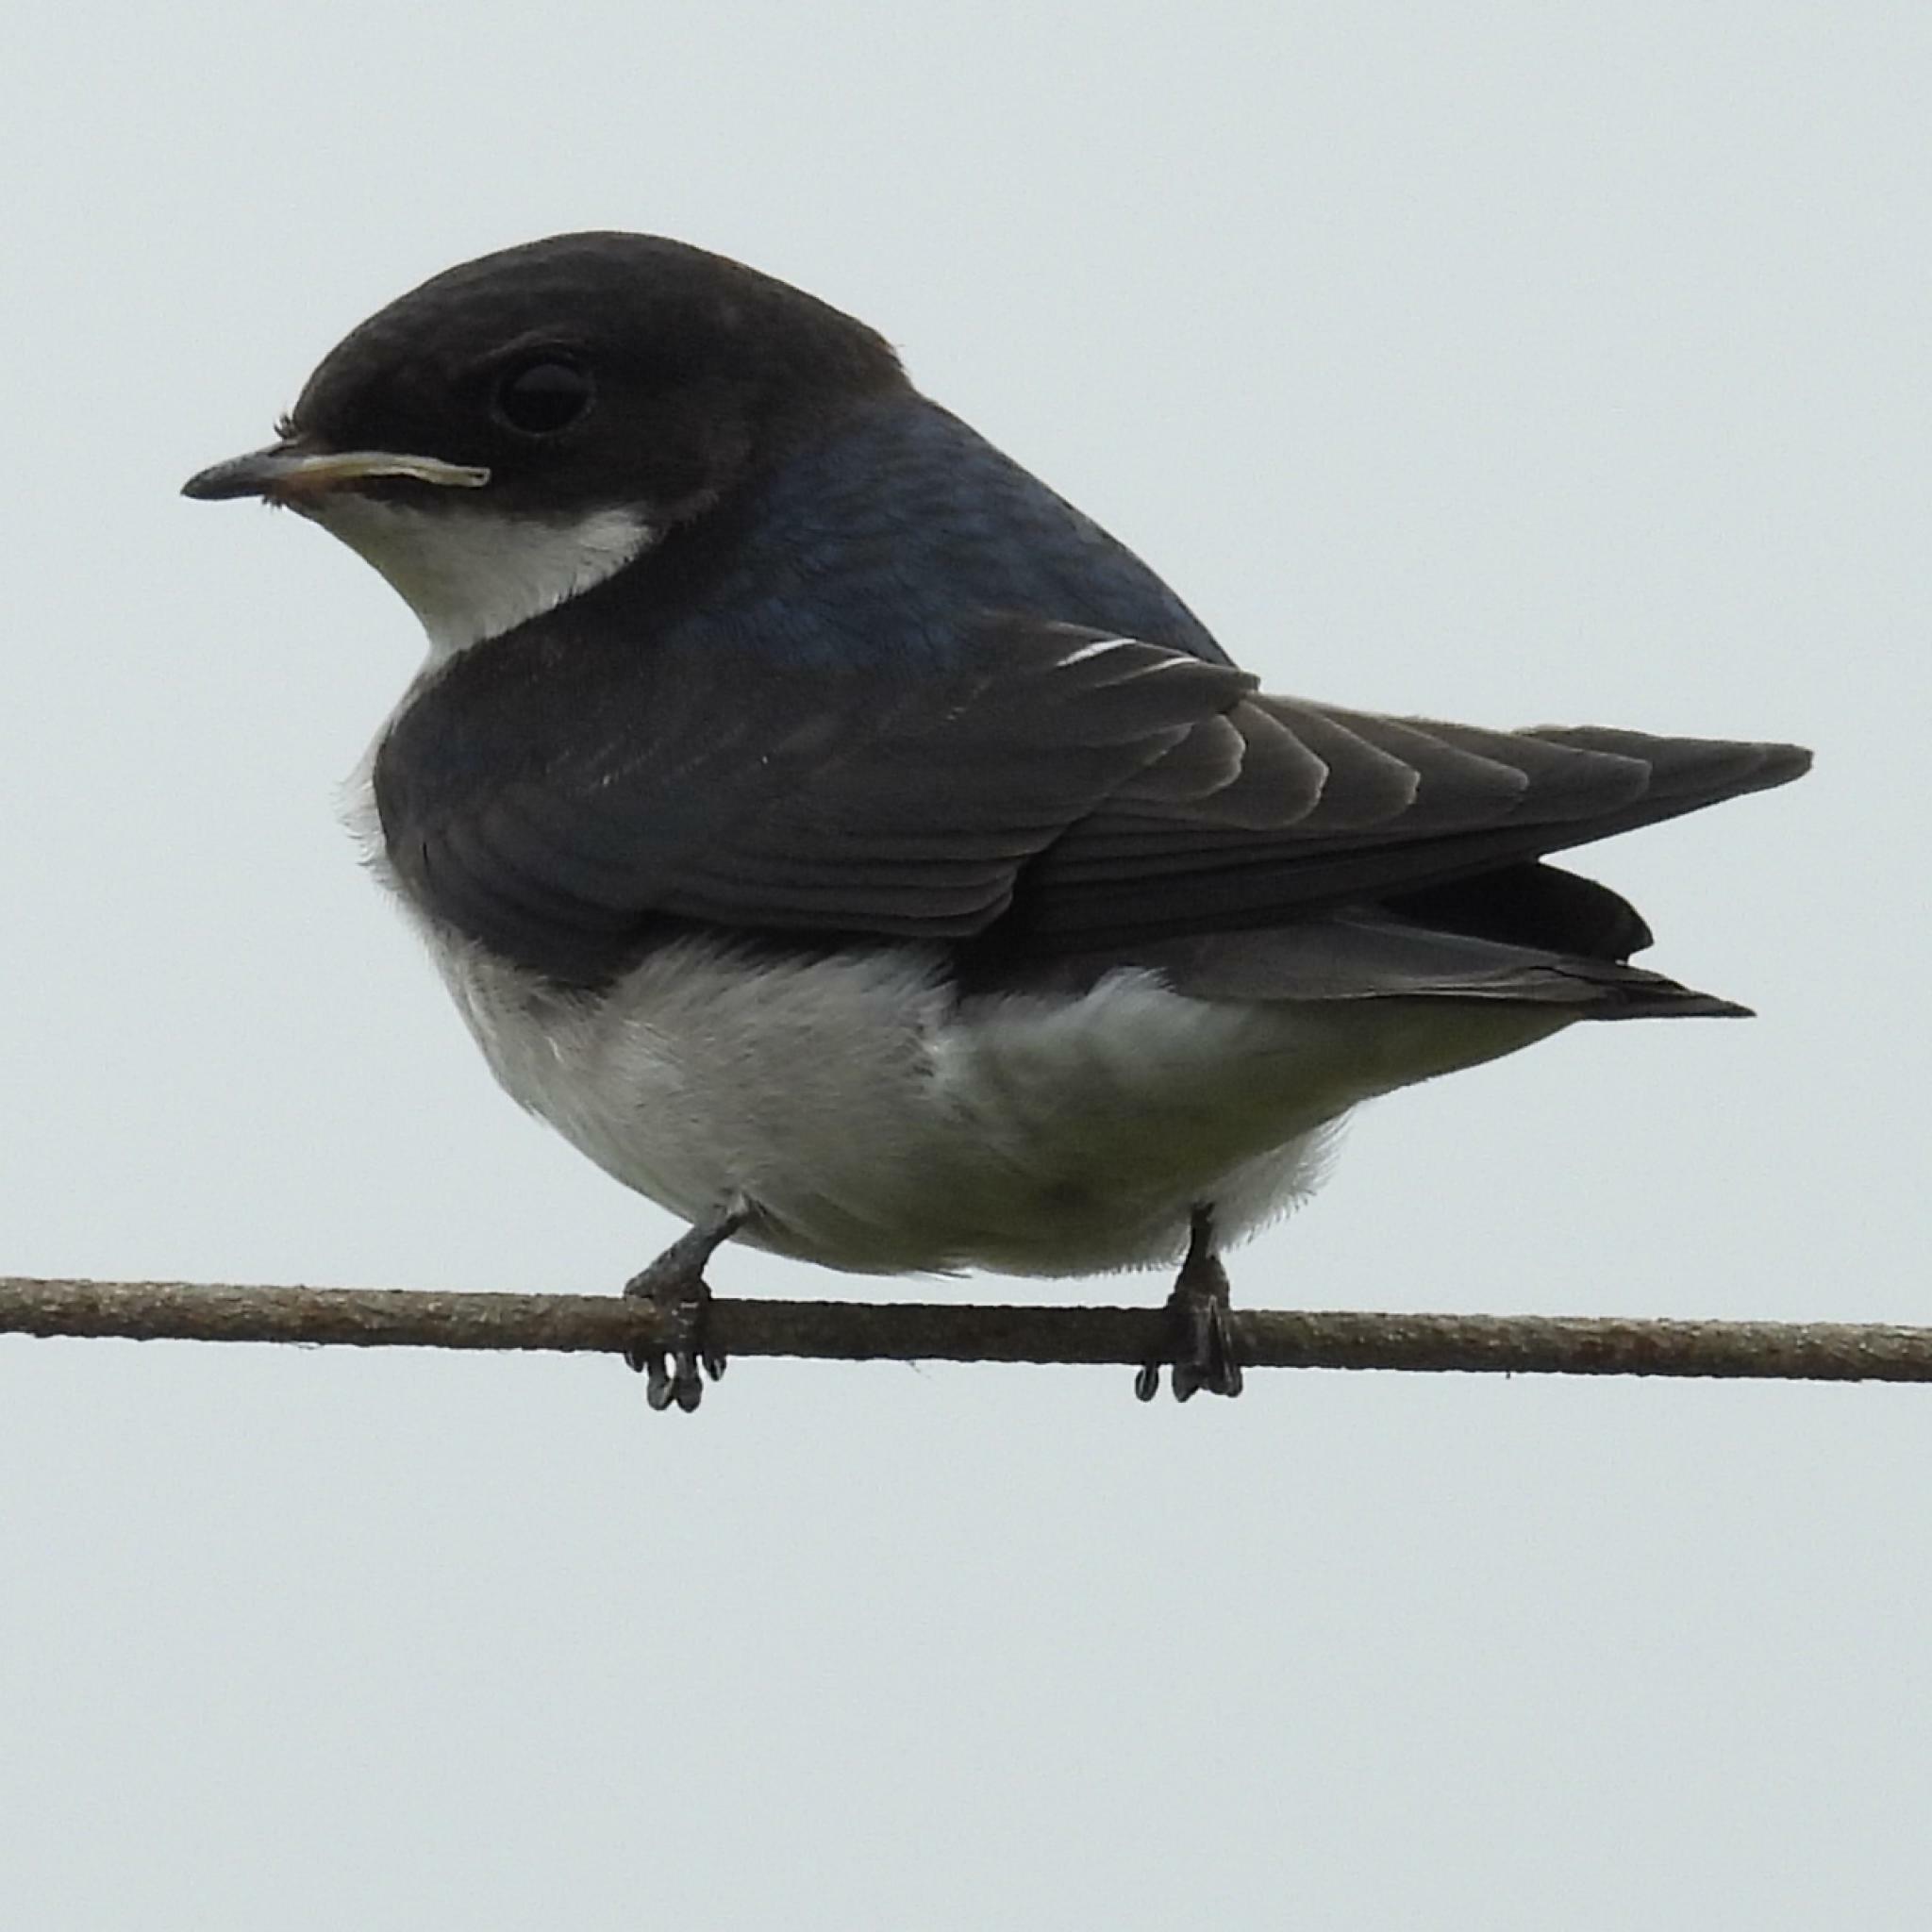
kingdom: Animalia
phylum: Chordata
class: Aves
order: Passeriformes
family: Hirundinidae
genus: Hirundo
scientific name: Hirundo dimidiata
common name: Pearl-breasted swallow
